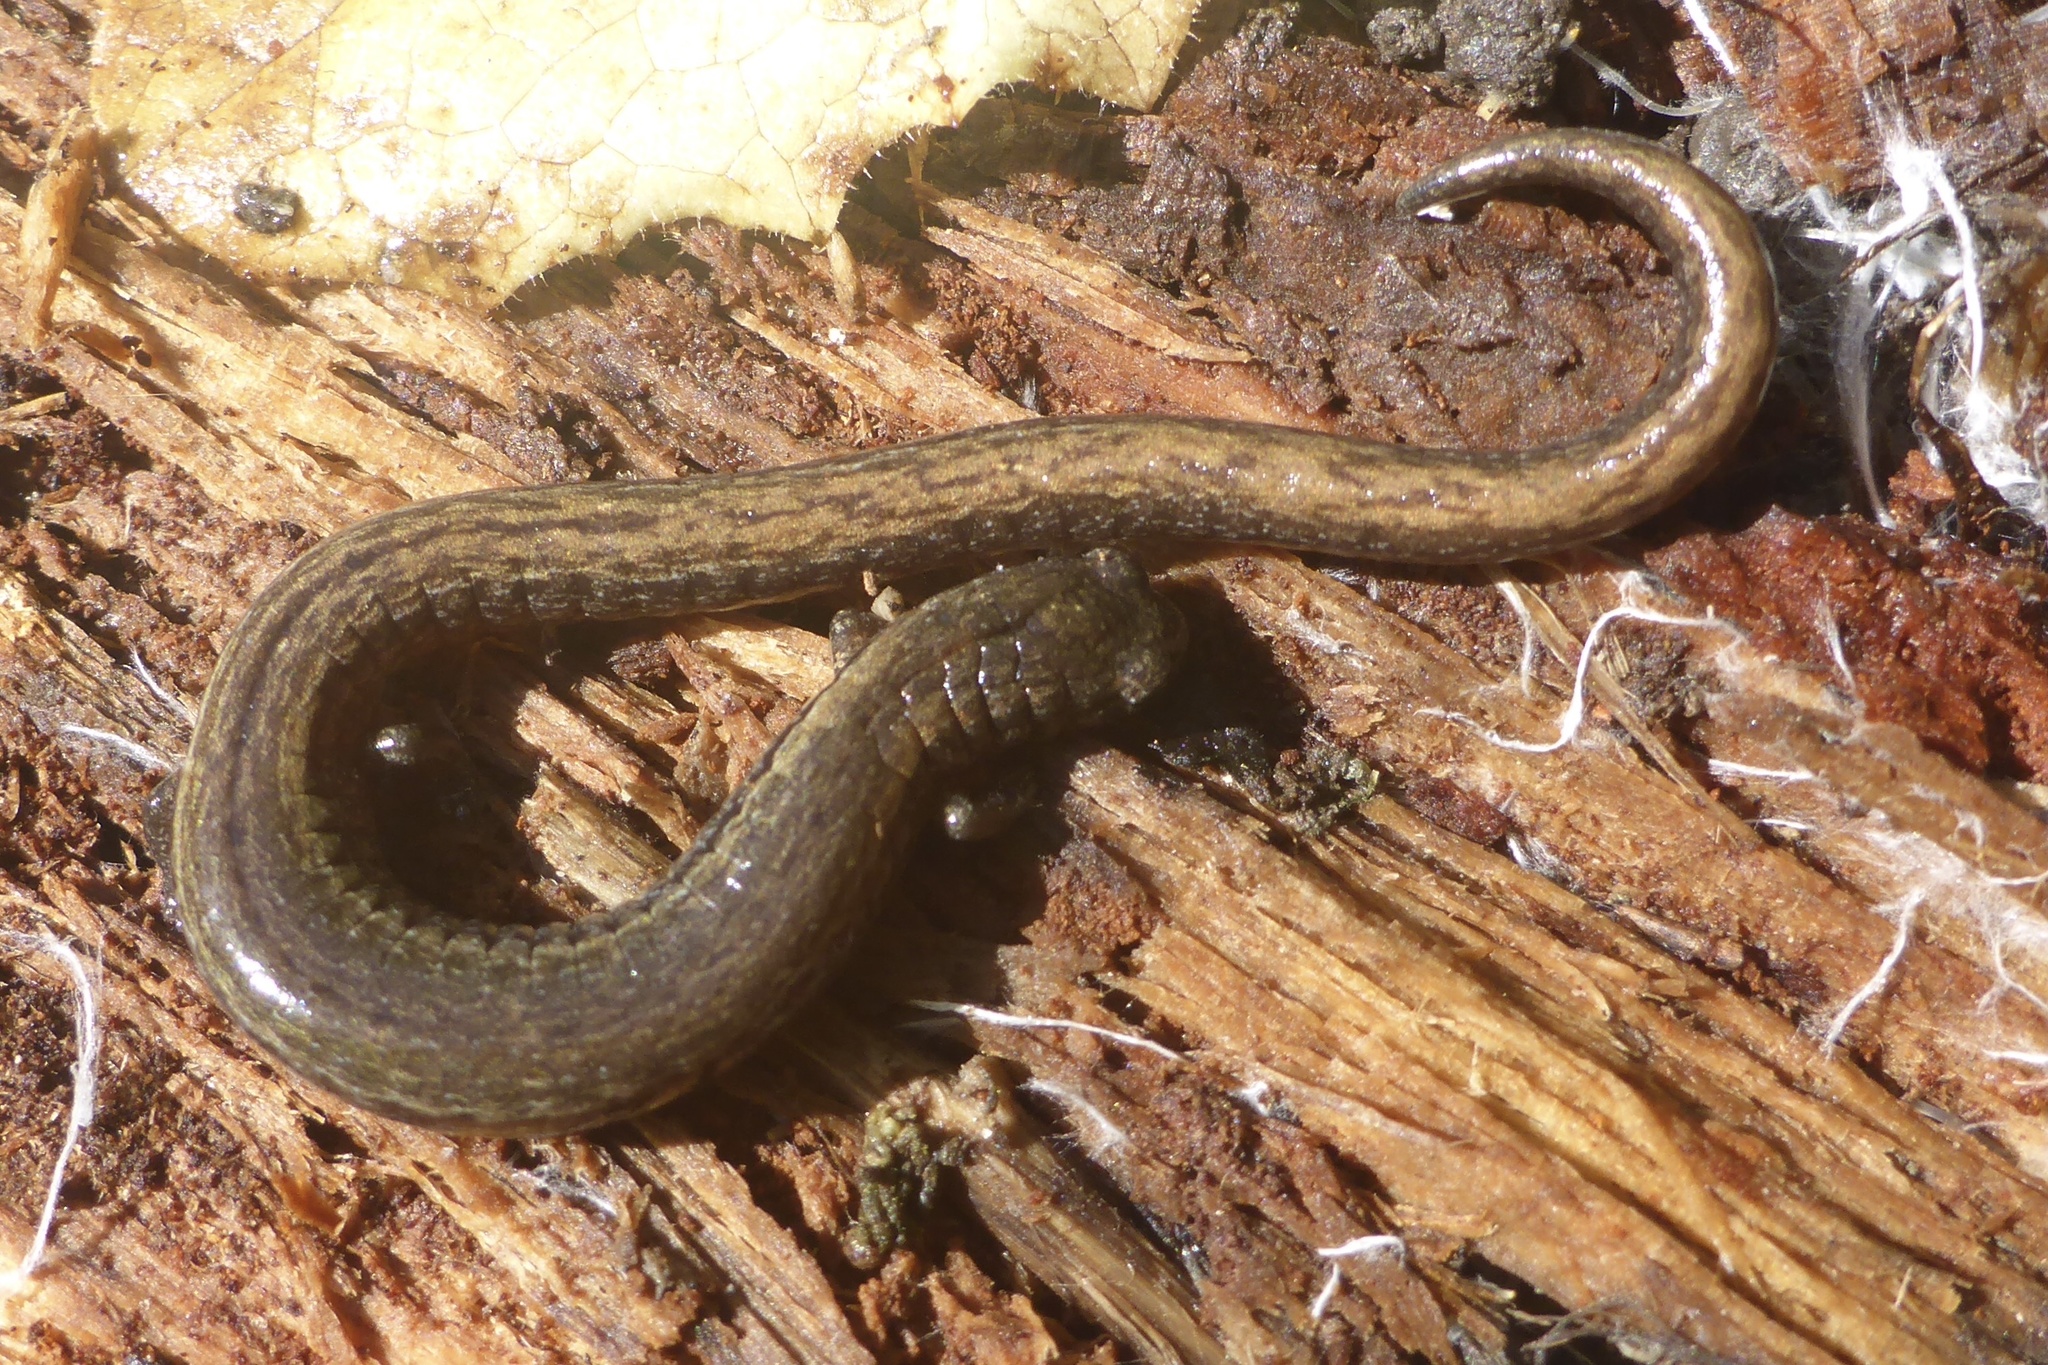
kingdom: Animalia
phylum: Chordata
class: Amphibia
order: Caudata
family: Plethodontidae
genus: Batrachoseps
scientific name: Batrachoseps attenuatus
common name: California slender salamander
